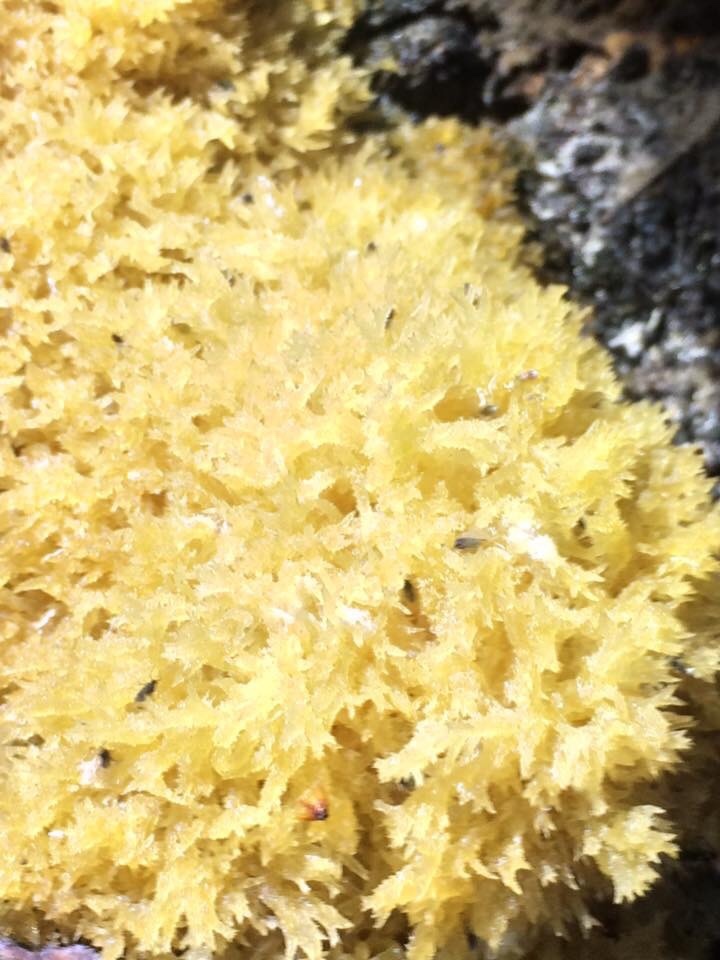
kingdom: Fungi
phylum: Ascomycota
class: Dothideomycetes
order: Capnodiales
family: Capnodiaceae
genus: Scorias
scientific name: Scorias spongiosa
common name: Black sooty mold
